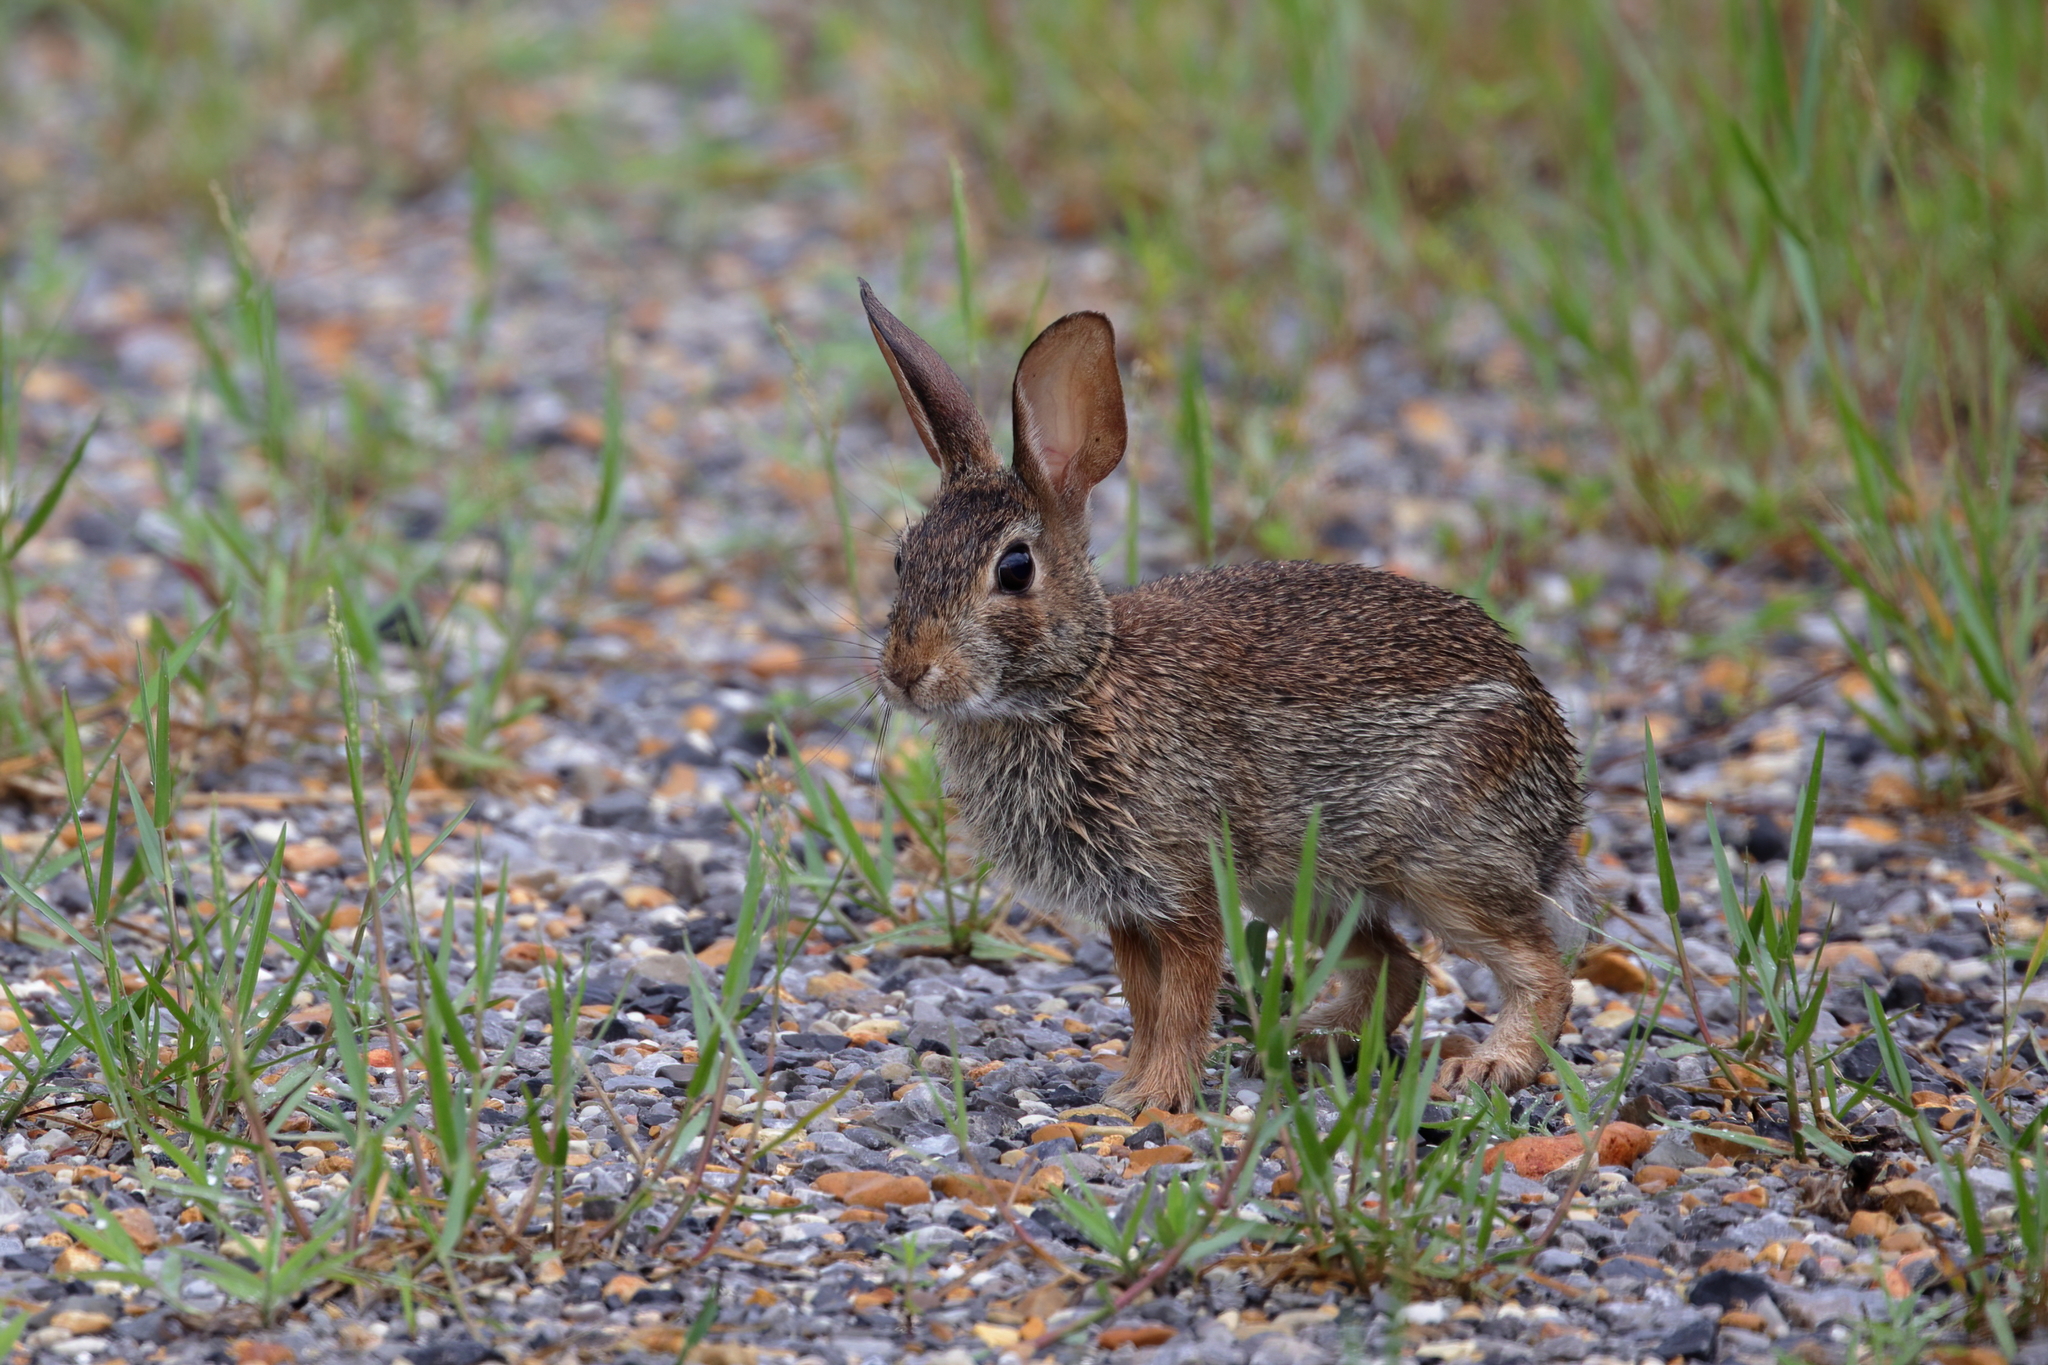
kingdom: Animalia
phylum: Chordata
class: Mammalia
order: Lagomorpha
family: Leporidae
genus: Sylvilagus
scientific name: Sylvilagus floridanus
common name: Eastern cottontail
